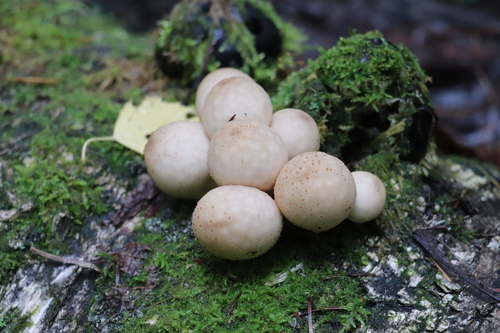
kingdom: Fungi
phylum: Basidiomycota
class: Agaricomycetes
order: Agaricales
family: Lycoperdaceae
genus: Apioperdon
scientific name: Apioperdon pyriforme
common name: Pear-shaped puffball
